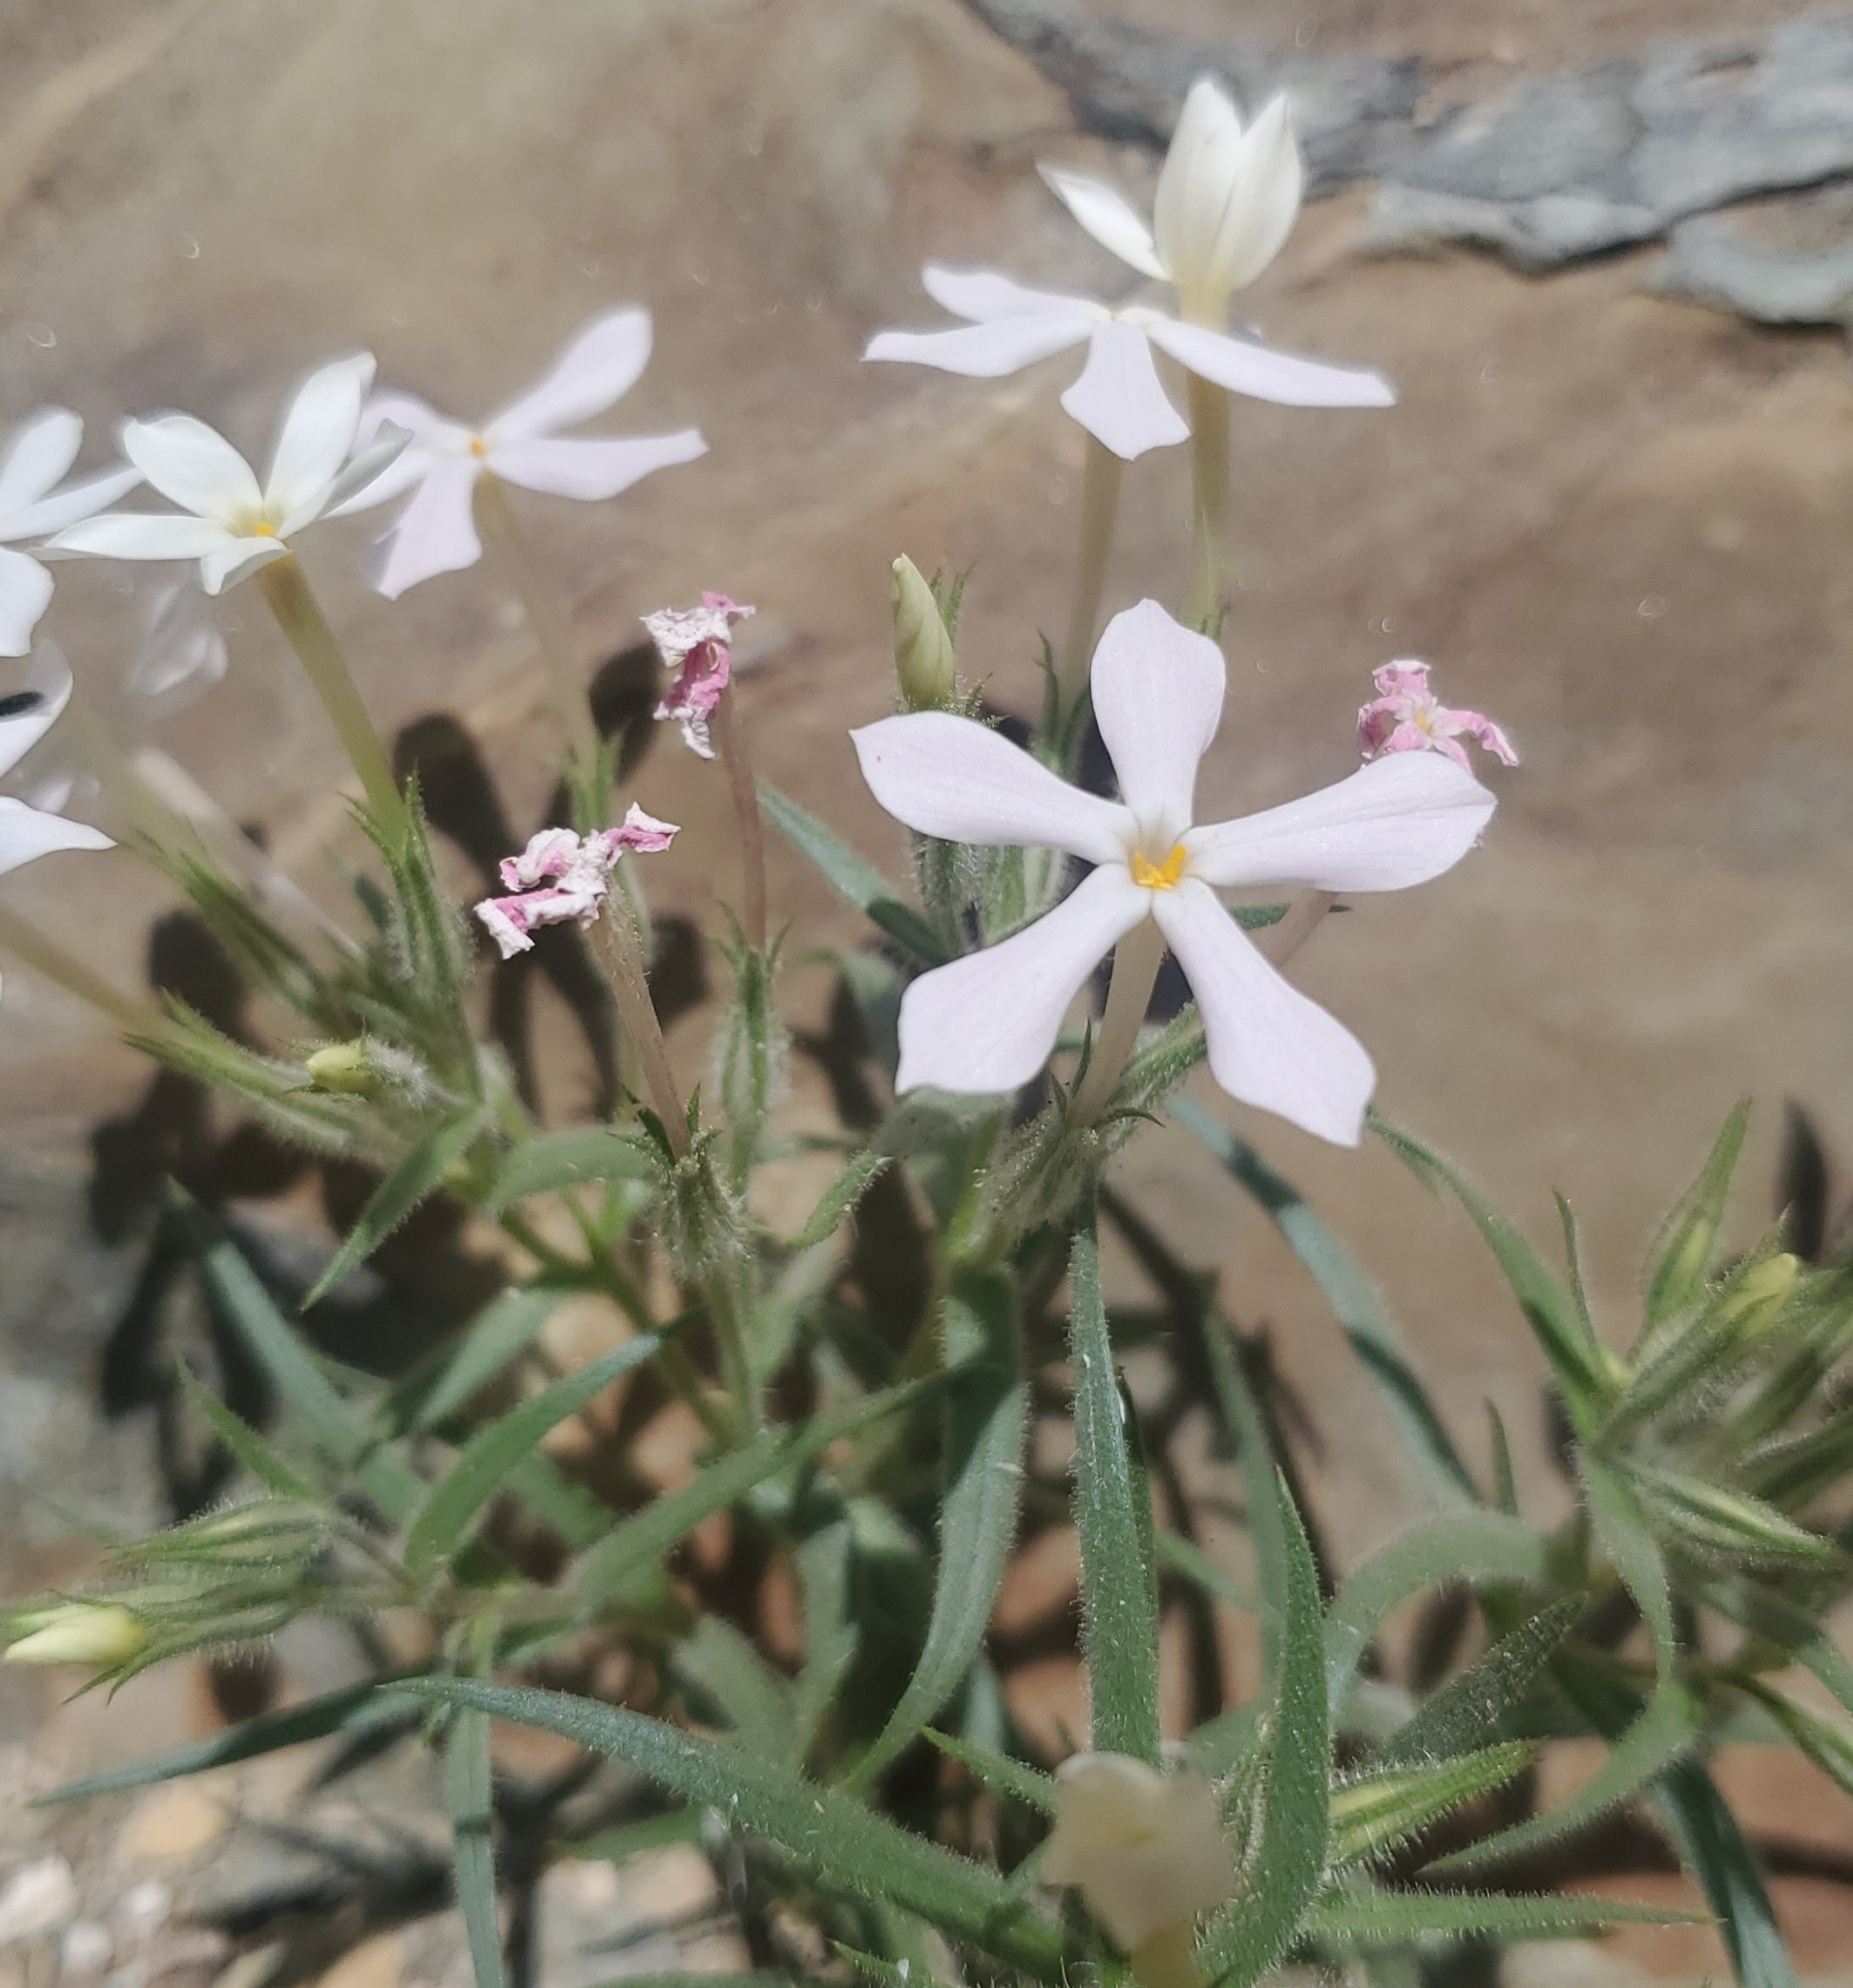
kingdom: Plantae
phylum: Tracheophyta
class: Magnoliopsida
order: Ericales
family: Polemoniaceae
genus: Phlox
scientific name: Phlox longifolia
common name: Longleaf phlox
